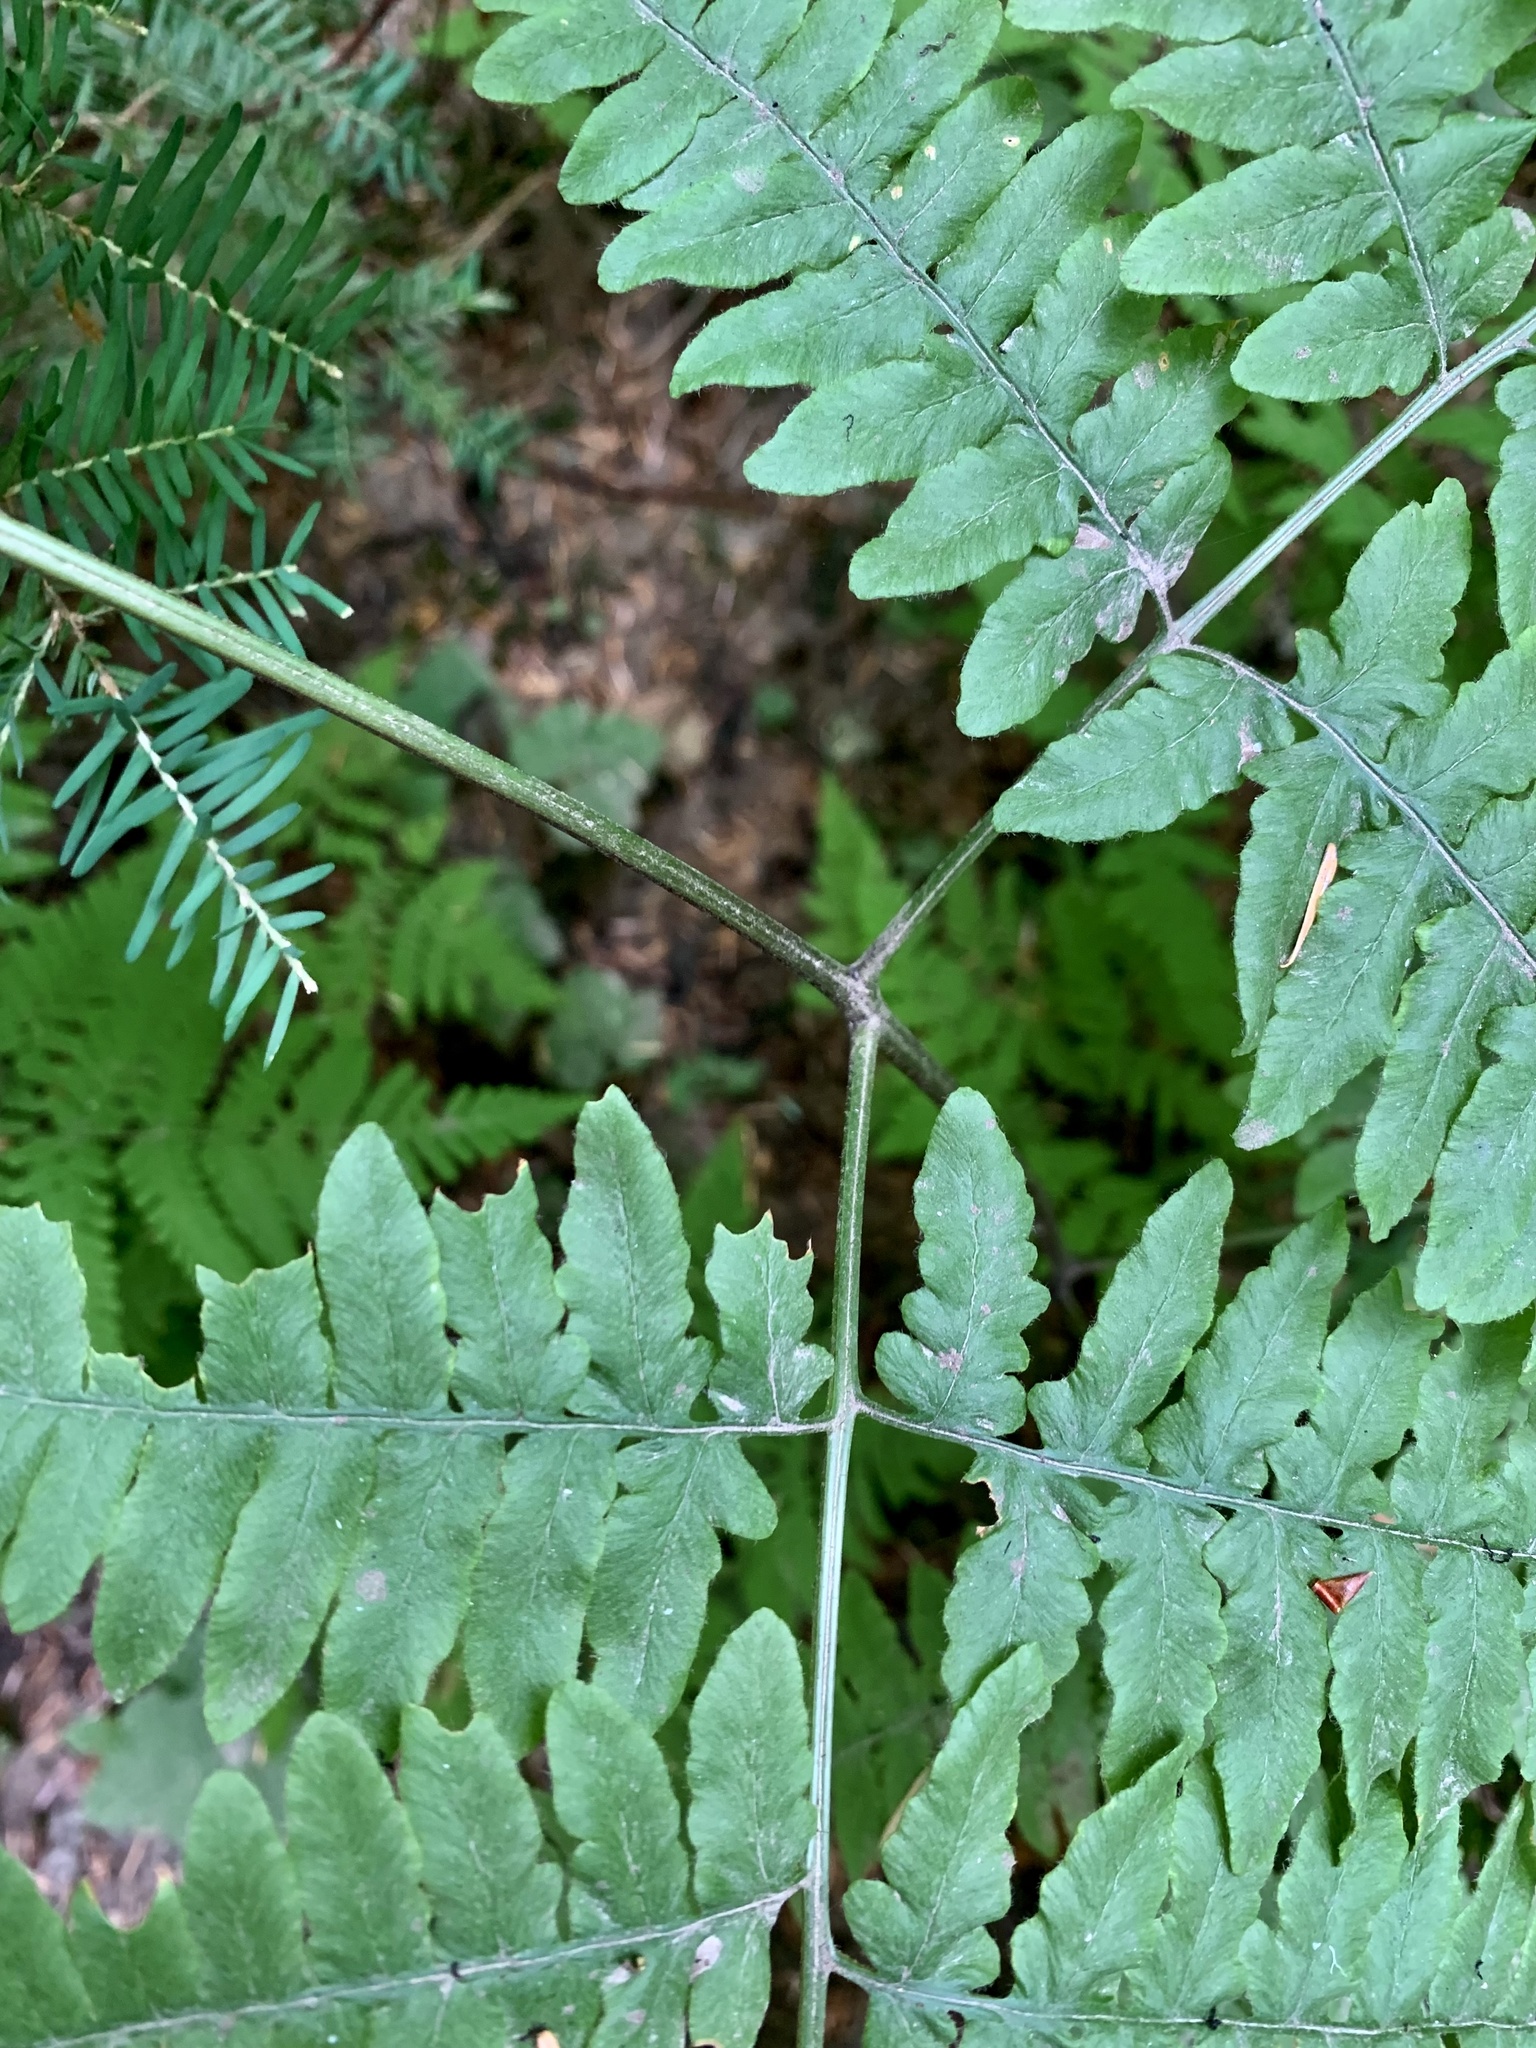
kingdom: Plantae
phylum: Tracheophyta
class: Polypodiopsida
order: Polypodiales
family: Dennstaedtiaceae
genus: Pteridium
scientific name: Pteridium aquilinum
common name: Bracken
